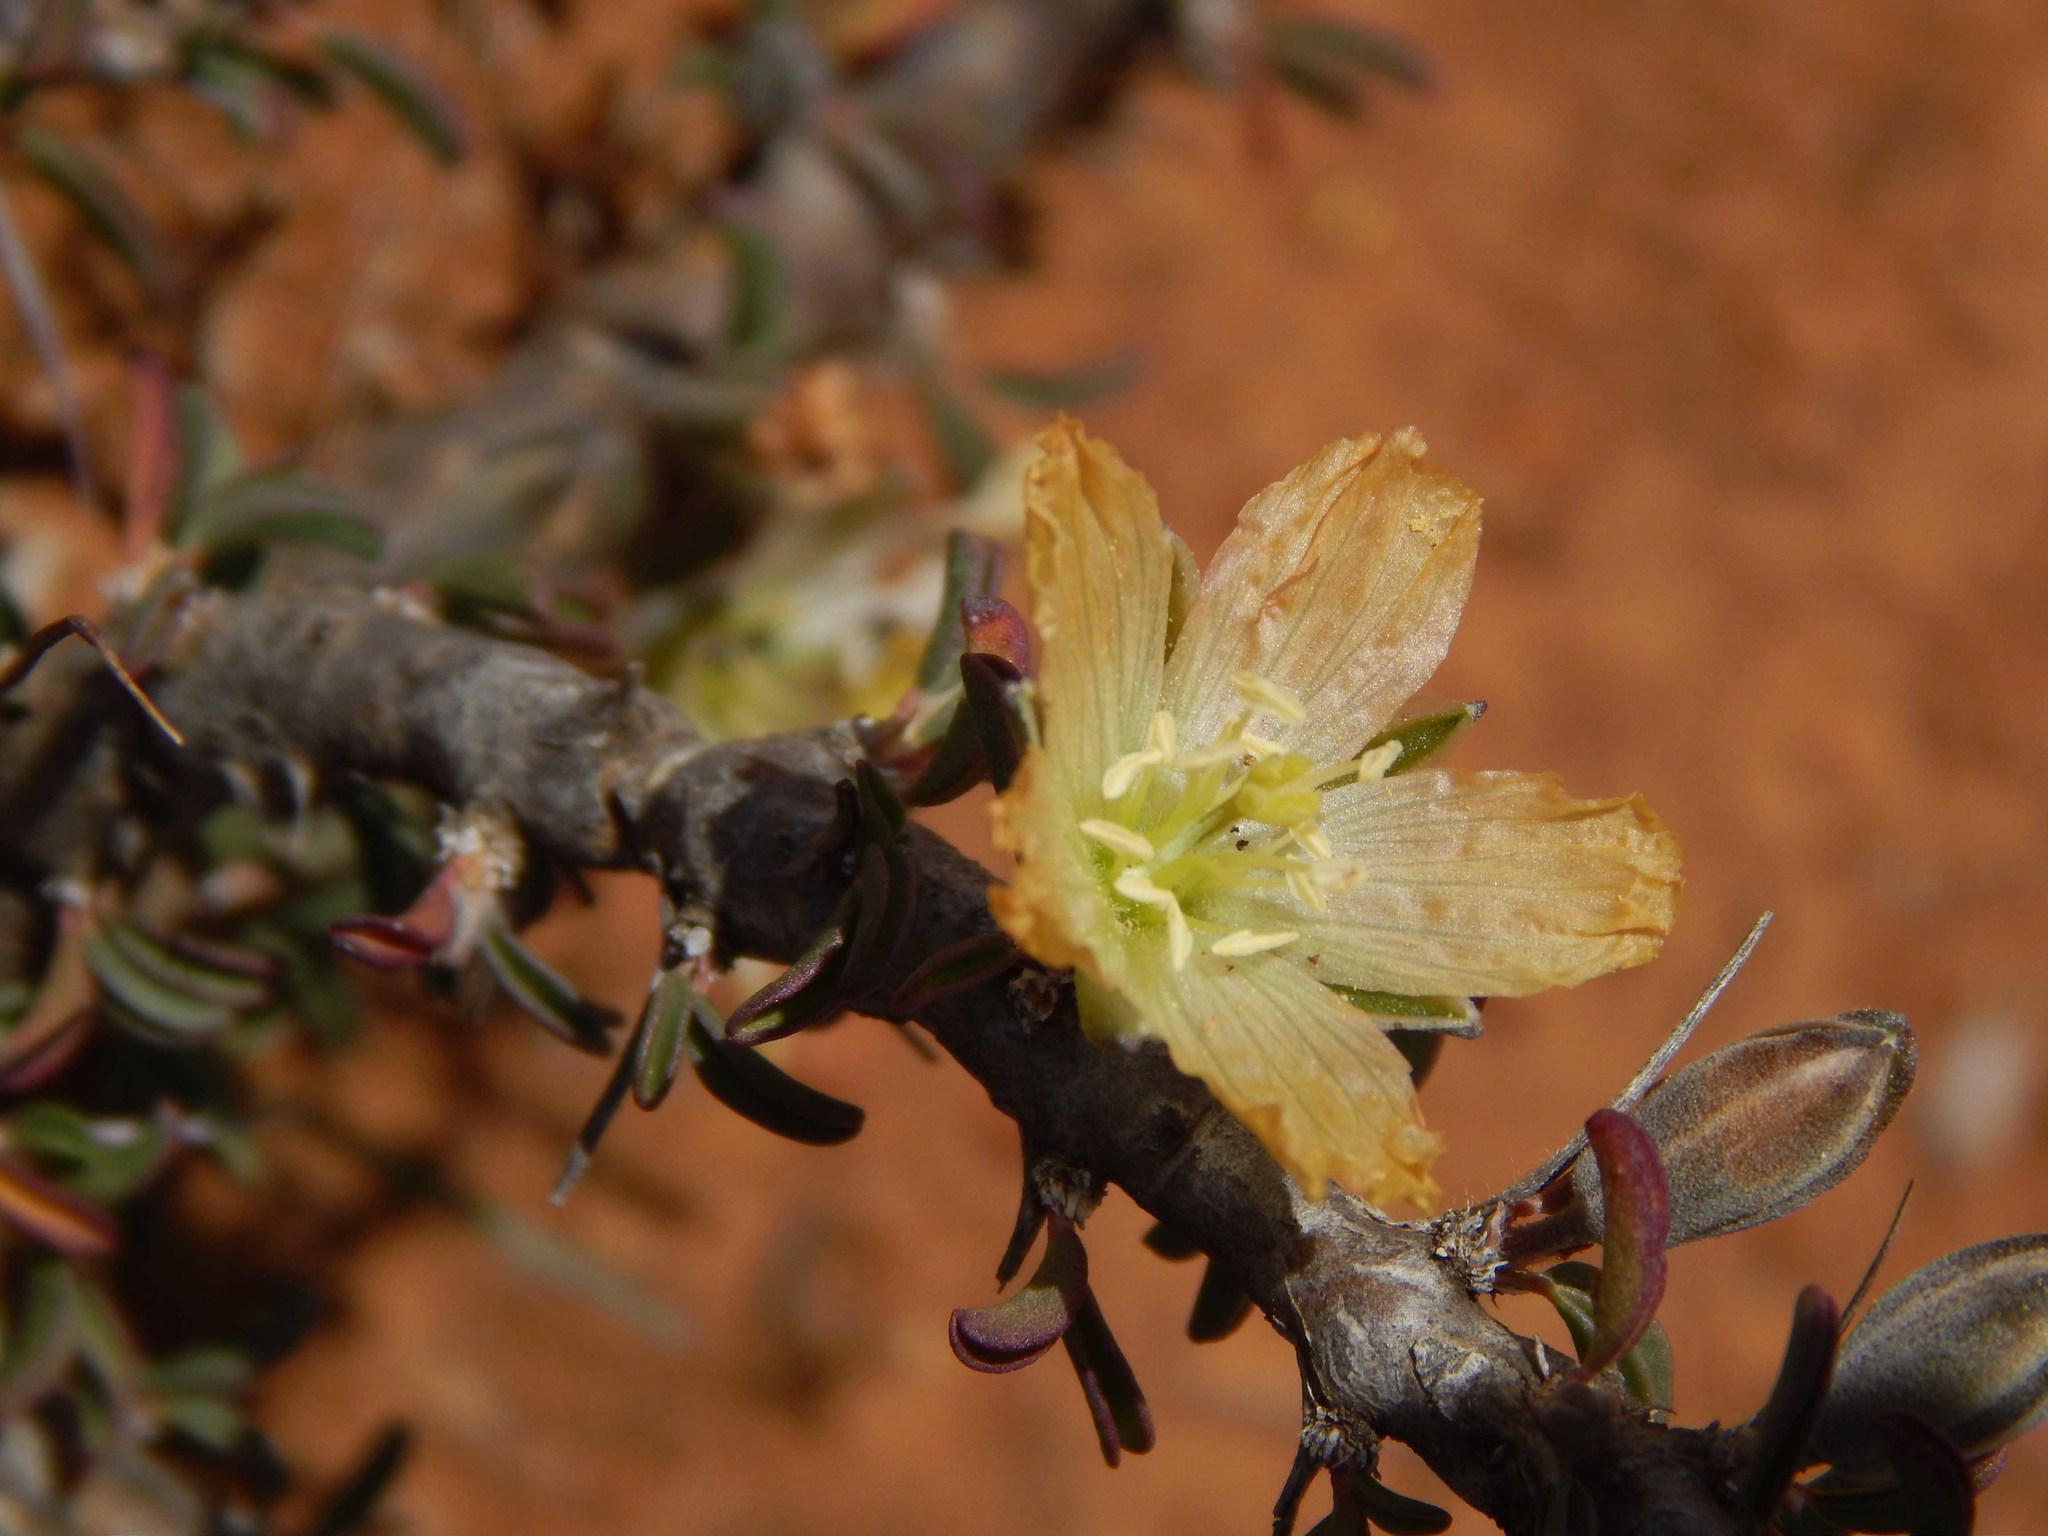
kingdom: Plantae
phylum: Tracheophyta
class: Magnoliopsida
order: Geraniales
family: Geraniaceae
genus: Monsonia
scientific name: Monsonia salmoniflora
